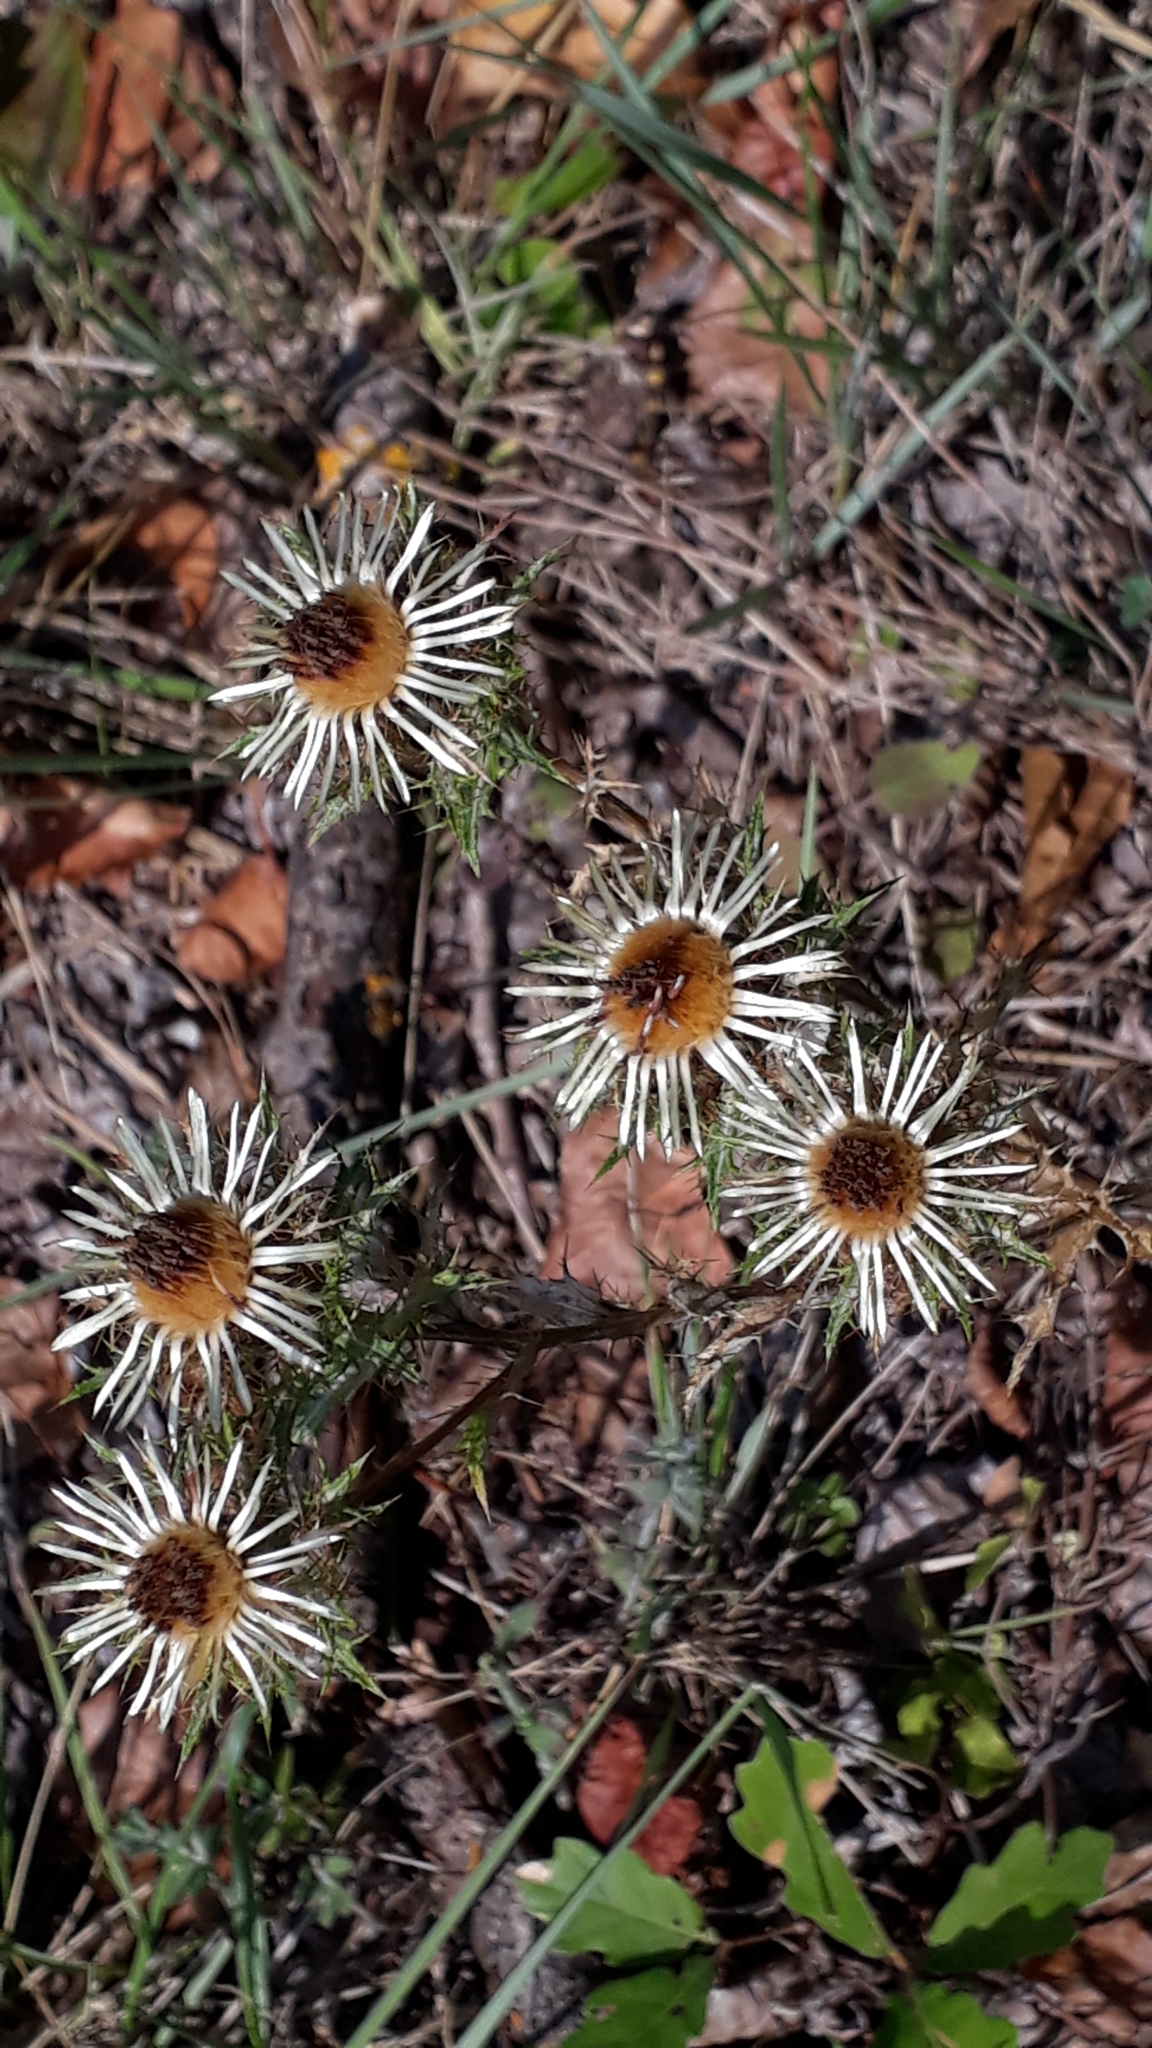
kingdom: Plantae
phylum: Tracheophyta
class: Magnoliopsida
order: Asterales
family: Asteraceae
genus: Carlina
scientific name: Carlina vulgaris
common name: Carline thistle
